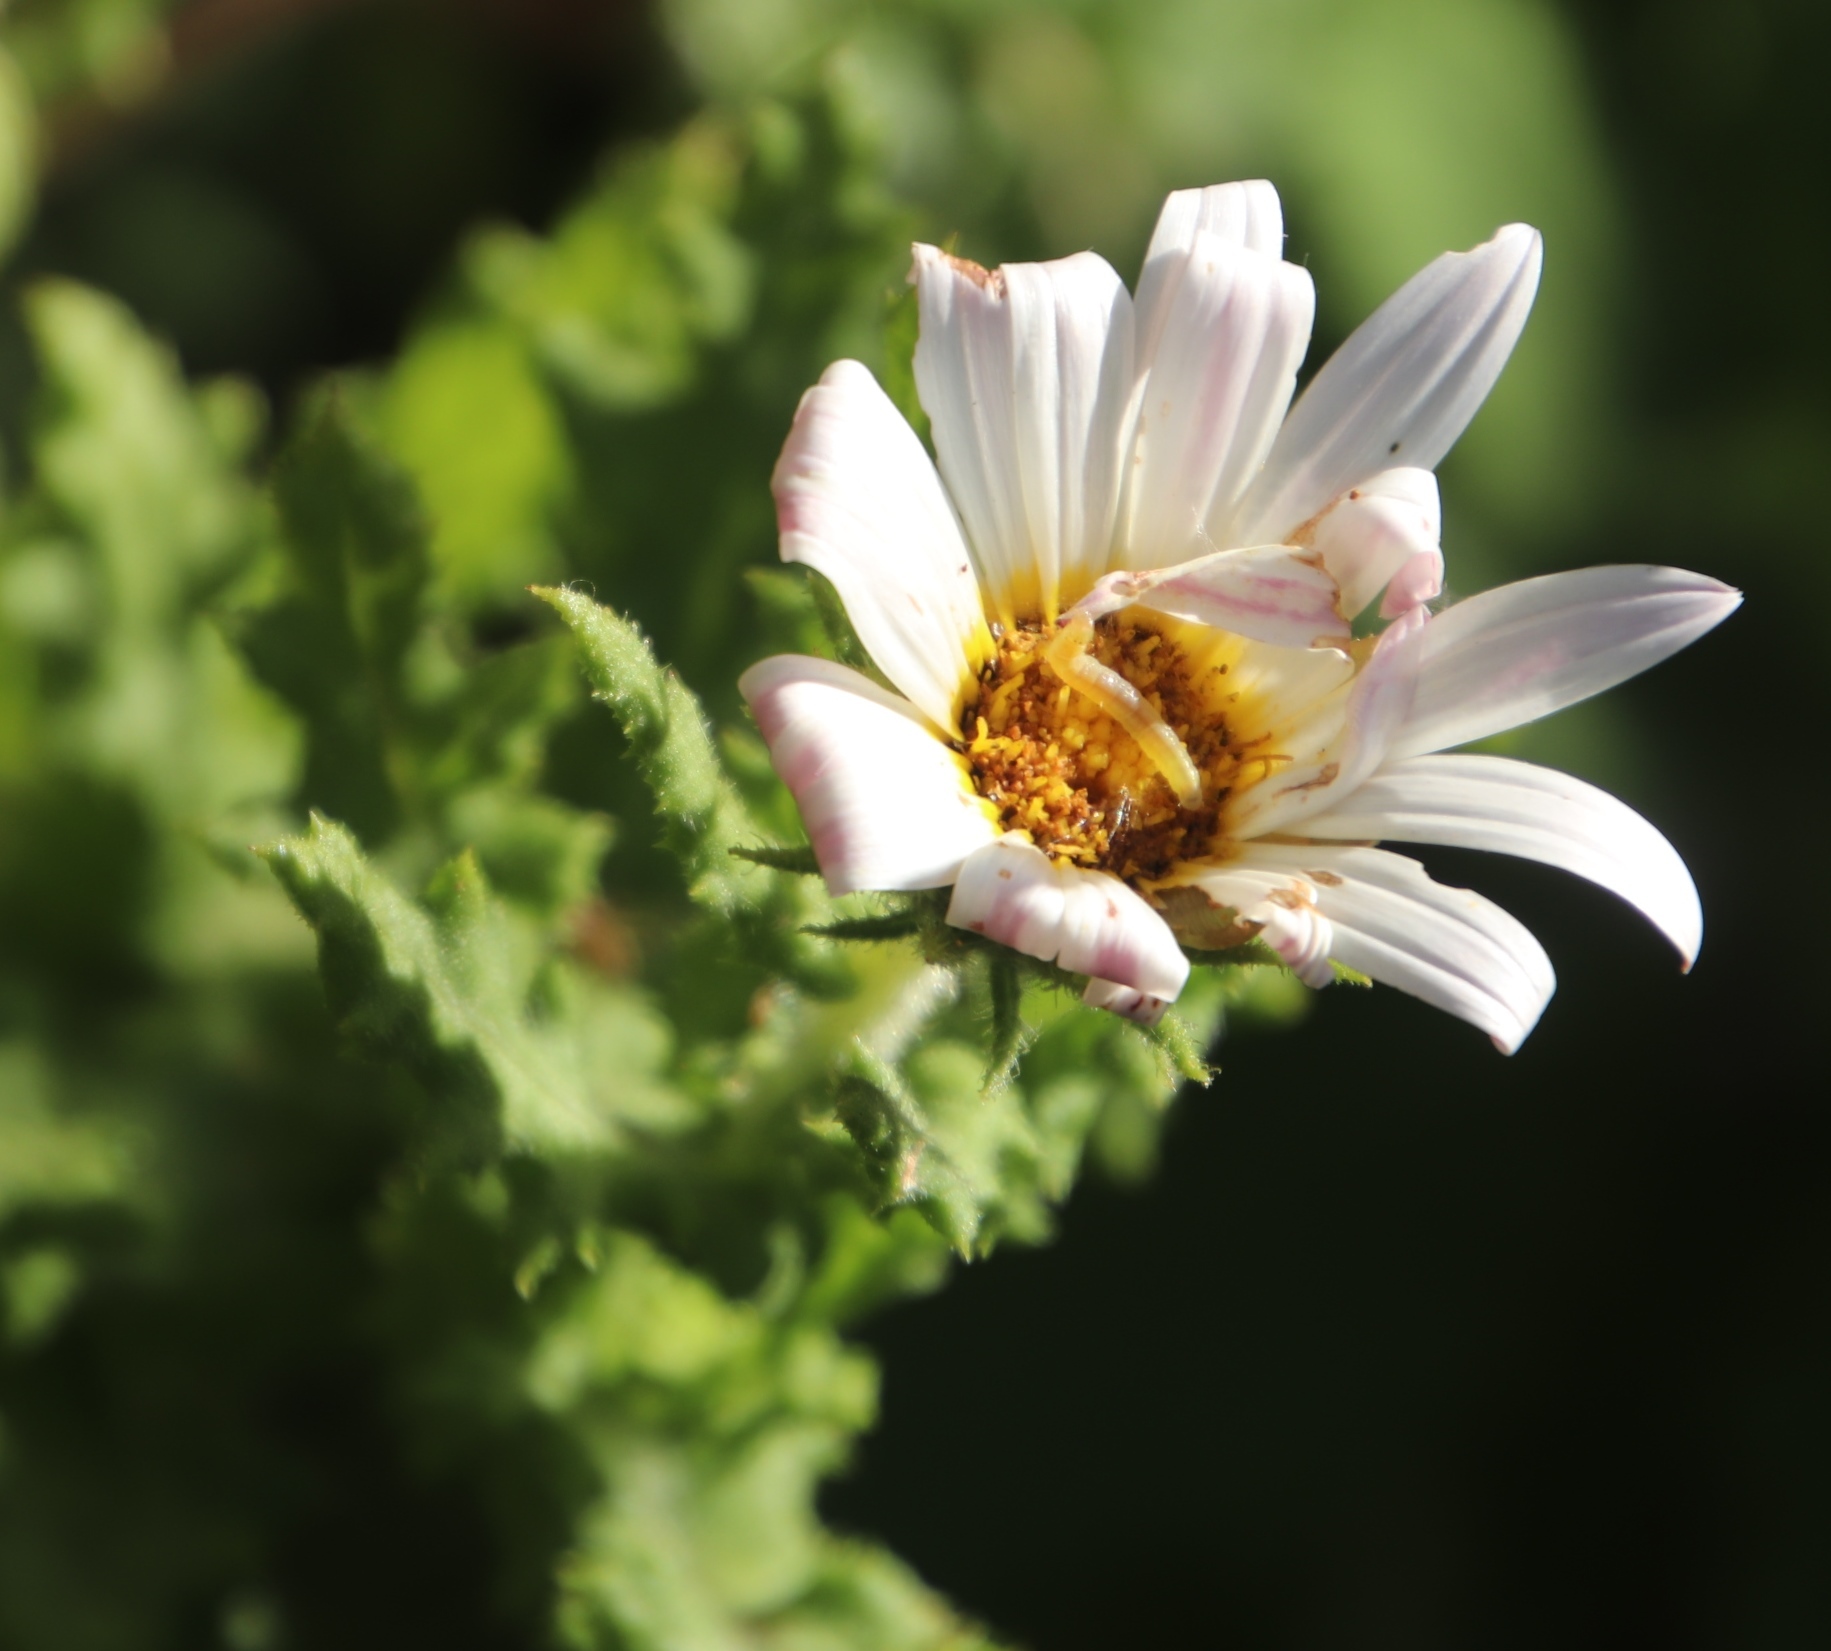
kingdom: Plantae
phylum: Tracheophyta
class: Magnoliopsida
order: Asterales
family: Asteraceae
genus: Arctotis
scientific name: Arctotis aspera
